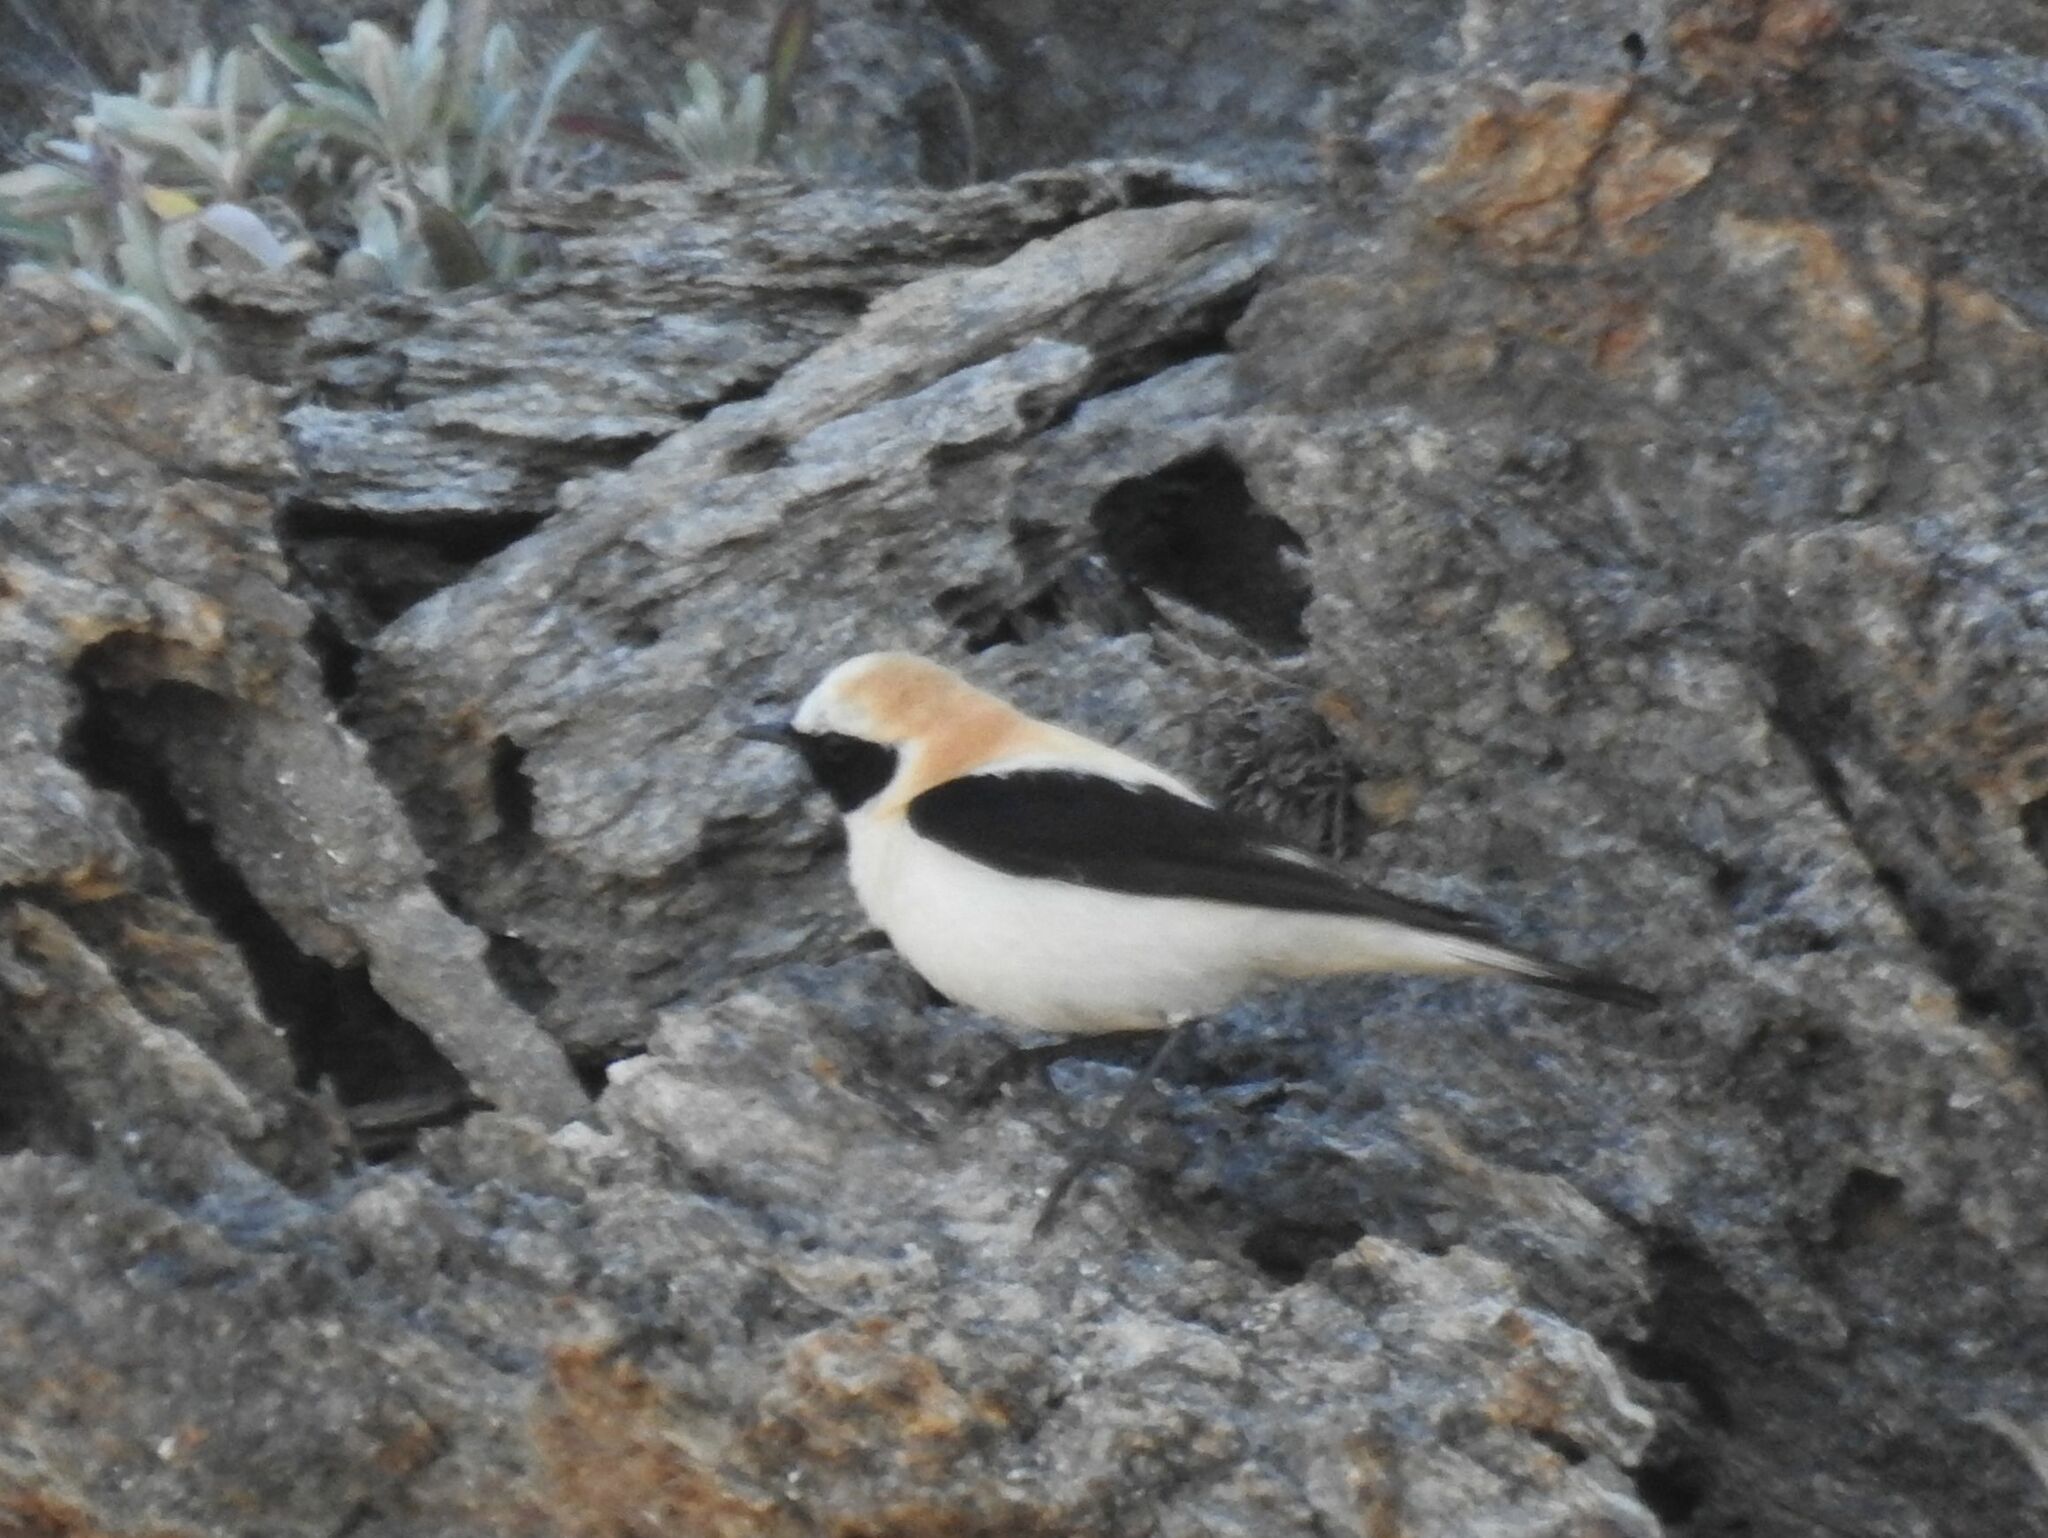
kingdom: Animalia
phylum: Chordata
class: Aves
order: Passeriformes
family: Muscicapidae
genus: Oenanthe
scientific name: Oenanthe hispanica
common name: Black-eared wheatear
